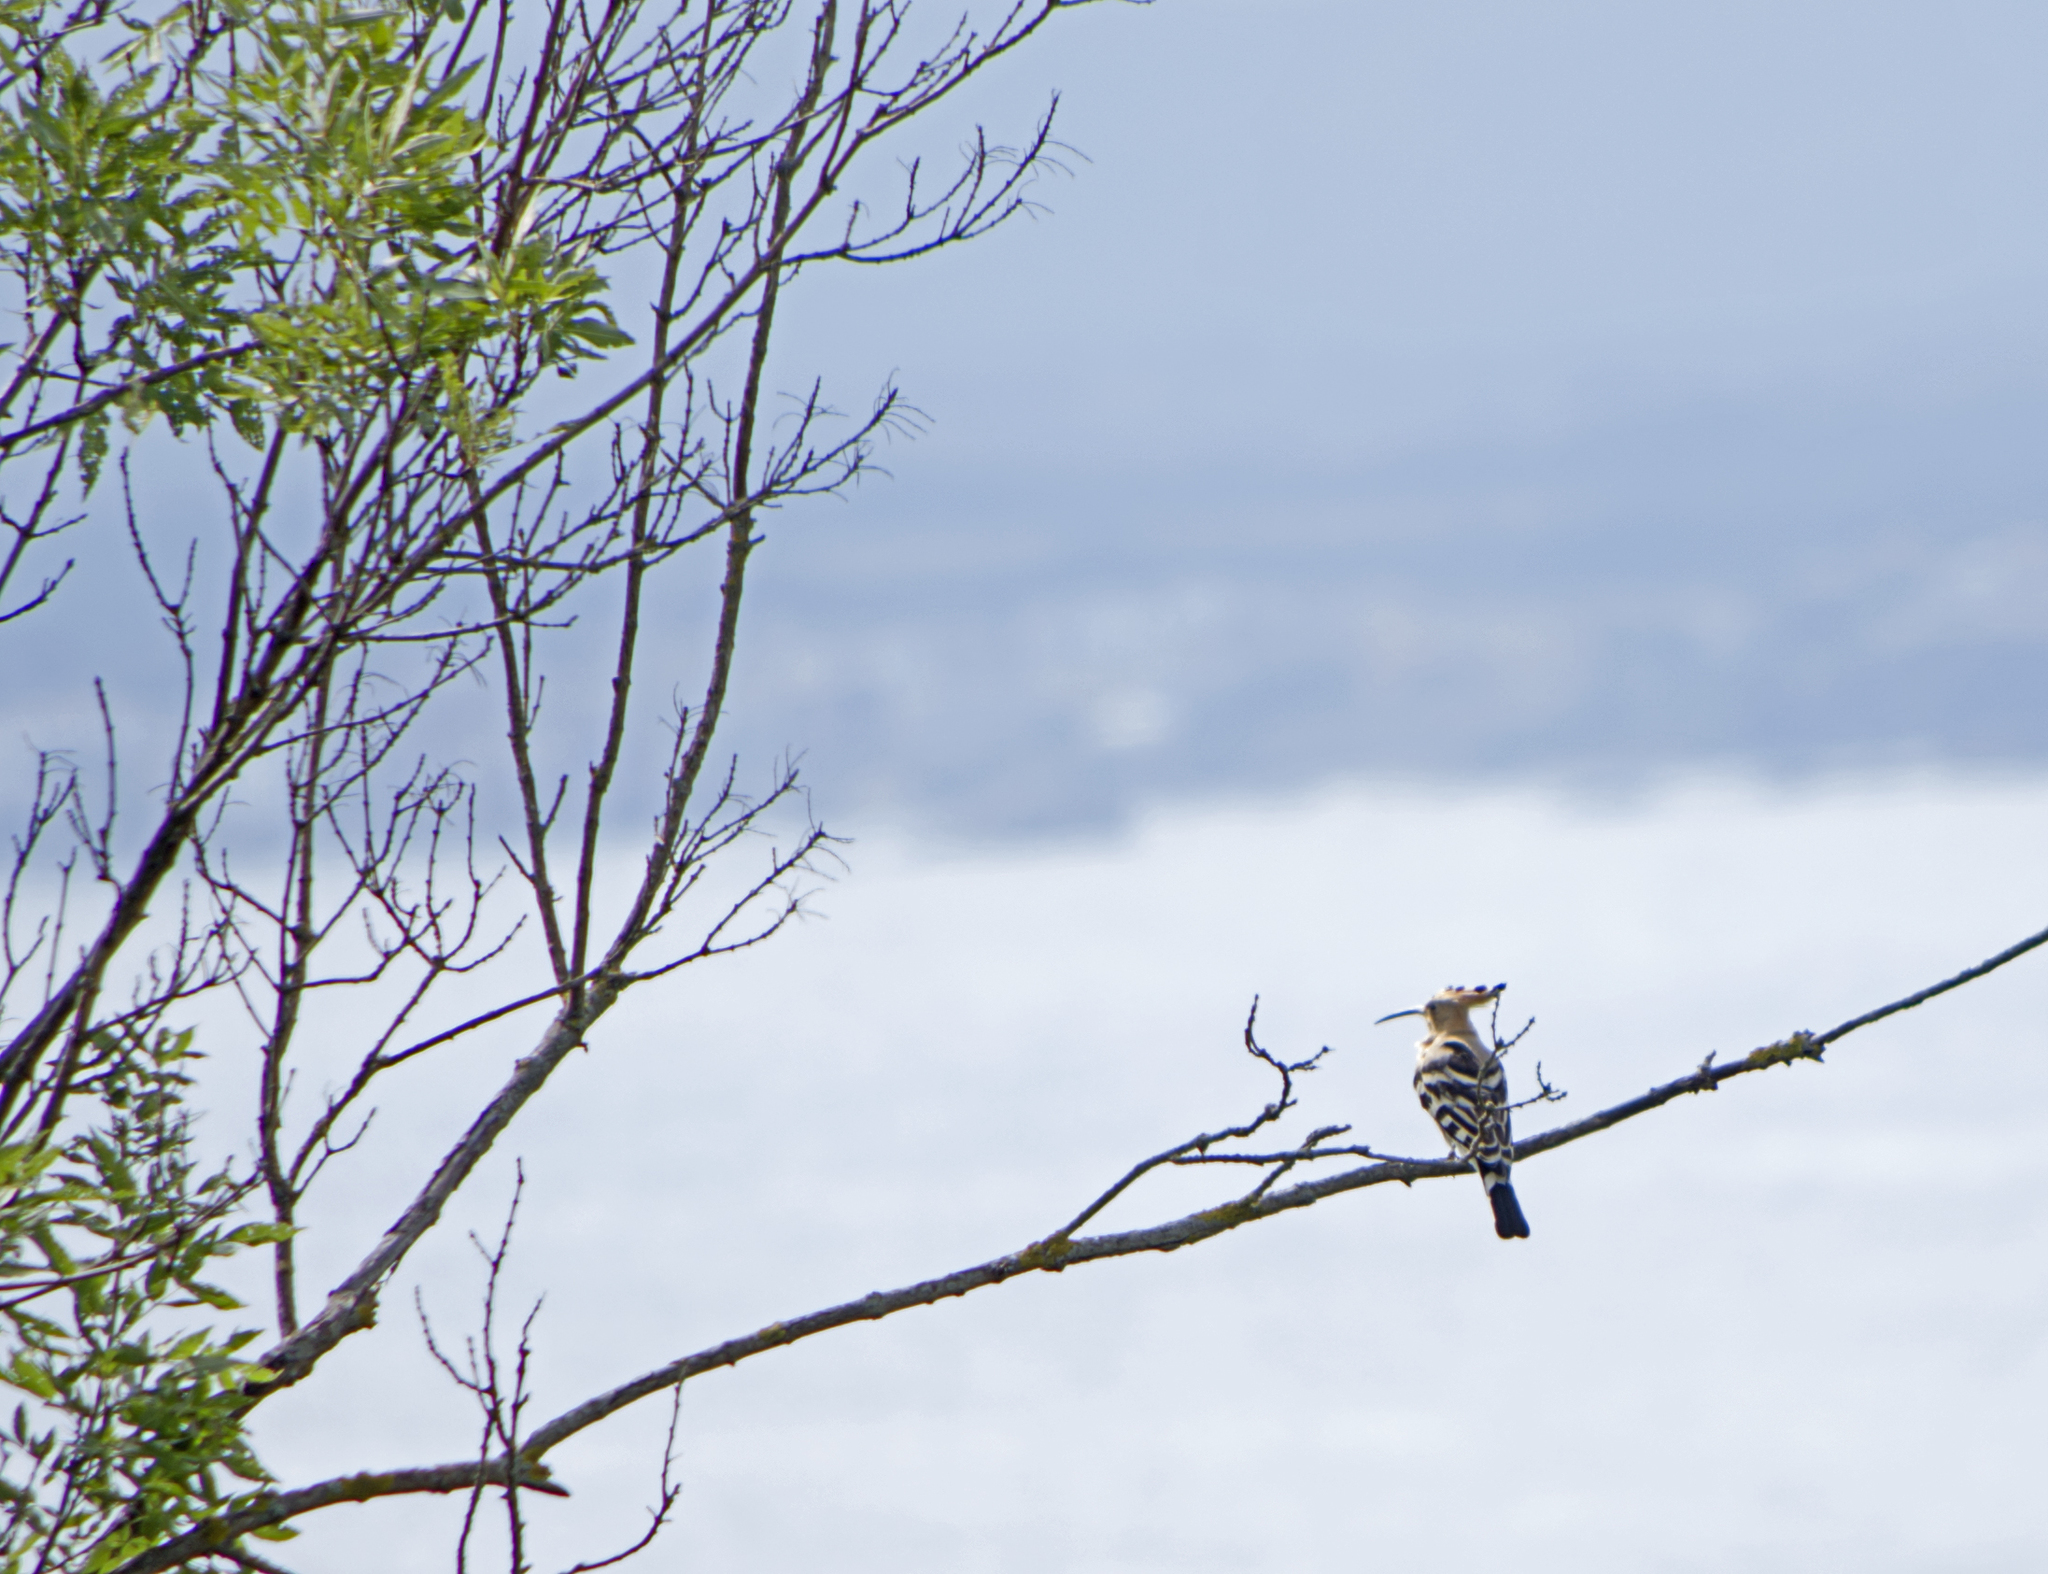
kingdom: Animalia
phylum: Chordata
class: Aves
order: Bucerotiformes
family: Upupidae
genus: Upupa
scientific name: Upupa epops
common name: Eurasian hoopoe
